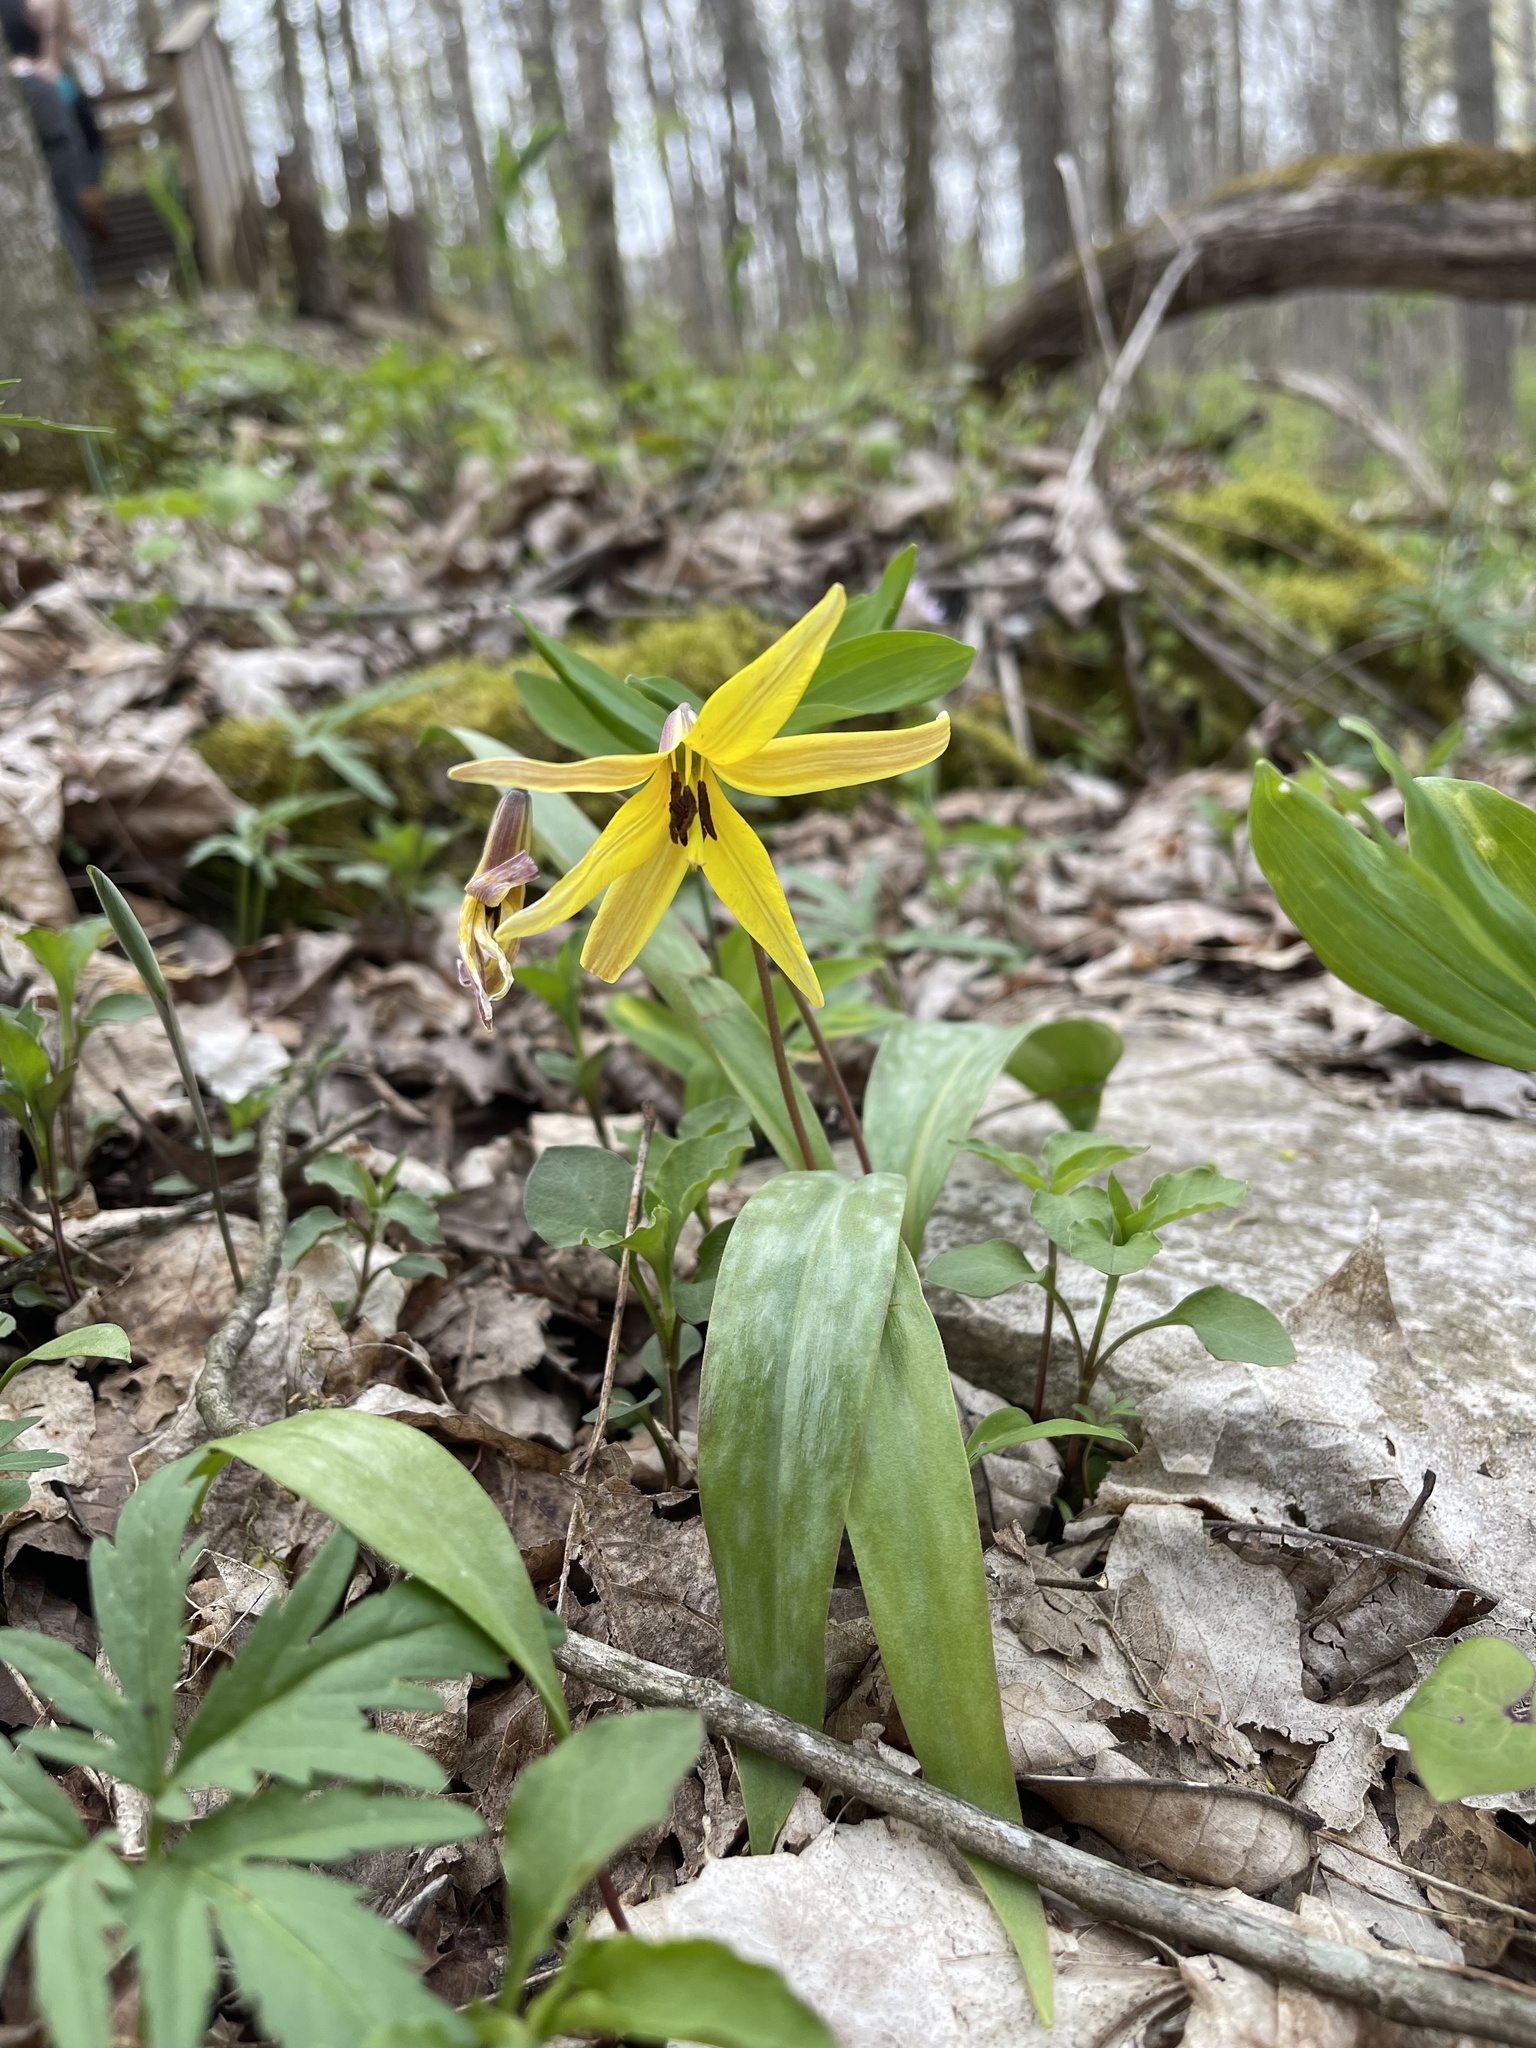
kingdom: Plantae
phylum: Tracheophyta
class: Liliopsida
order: Liliales
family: Liliaceae
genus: Erythronium
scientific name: Erythronium americanum
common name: Yellow adder's-tongue
